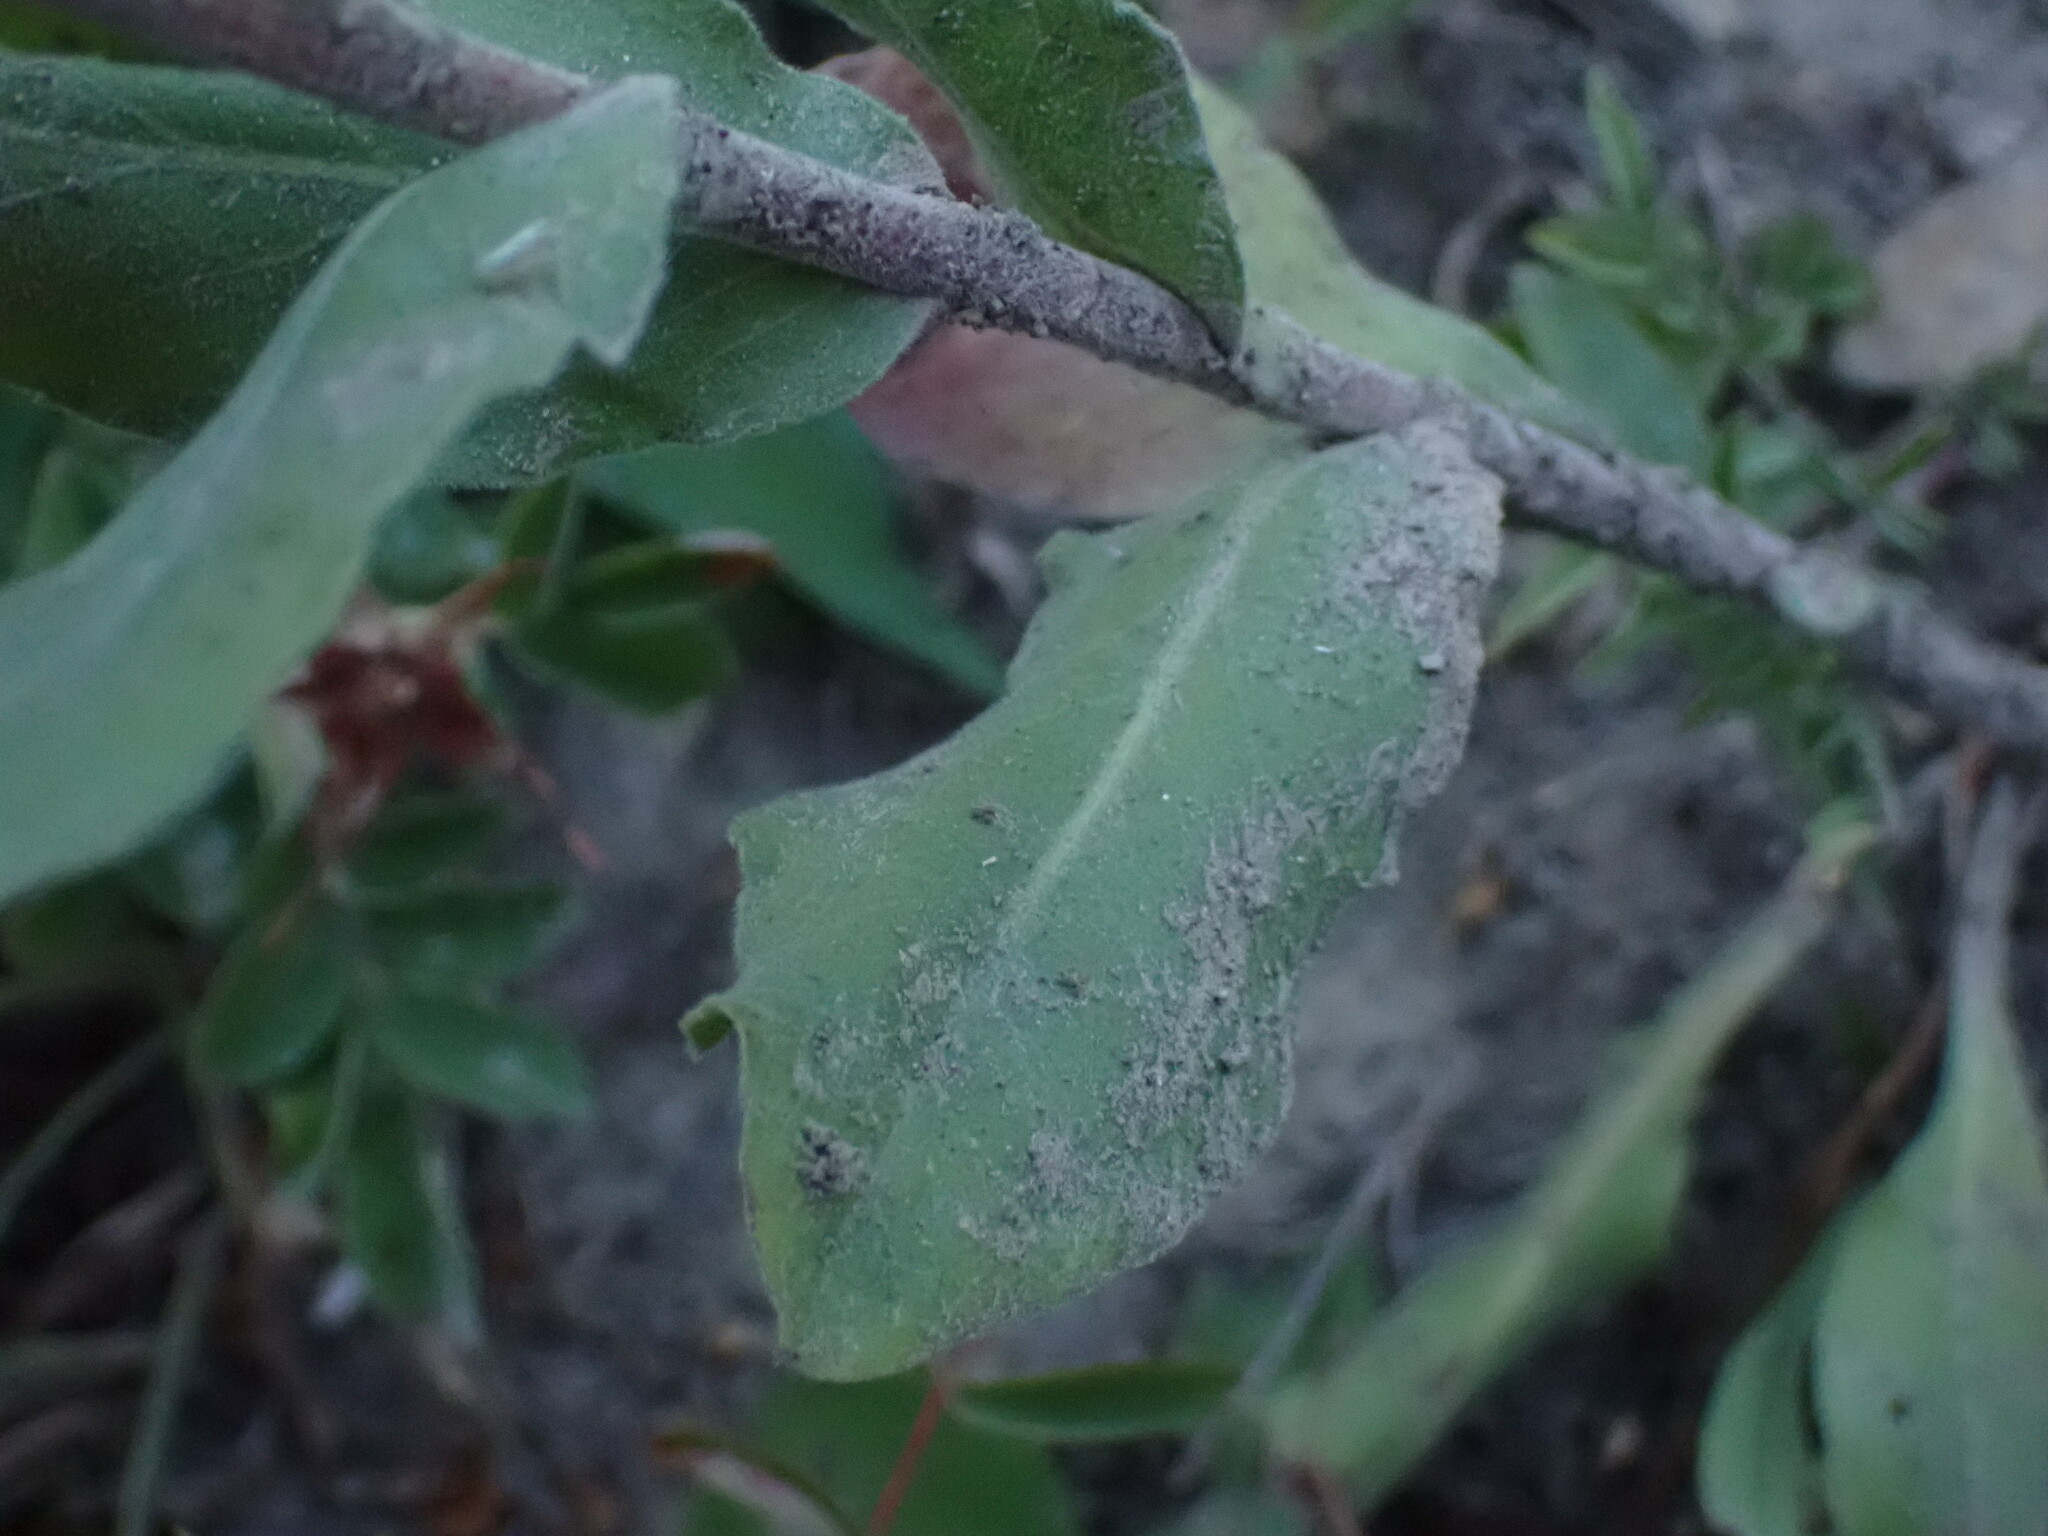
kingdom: Plantae
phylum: Tracheophyta
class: Magnoliopsida
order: Asterales
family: Asteraceae
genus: Solidago
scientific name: Solidago rigida
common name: Rigid goldenrod
